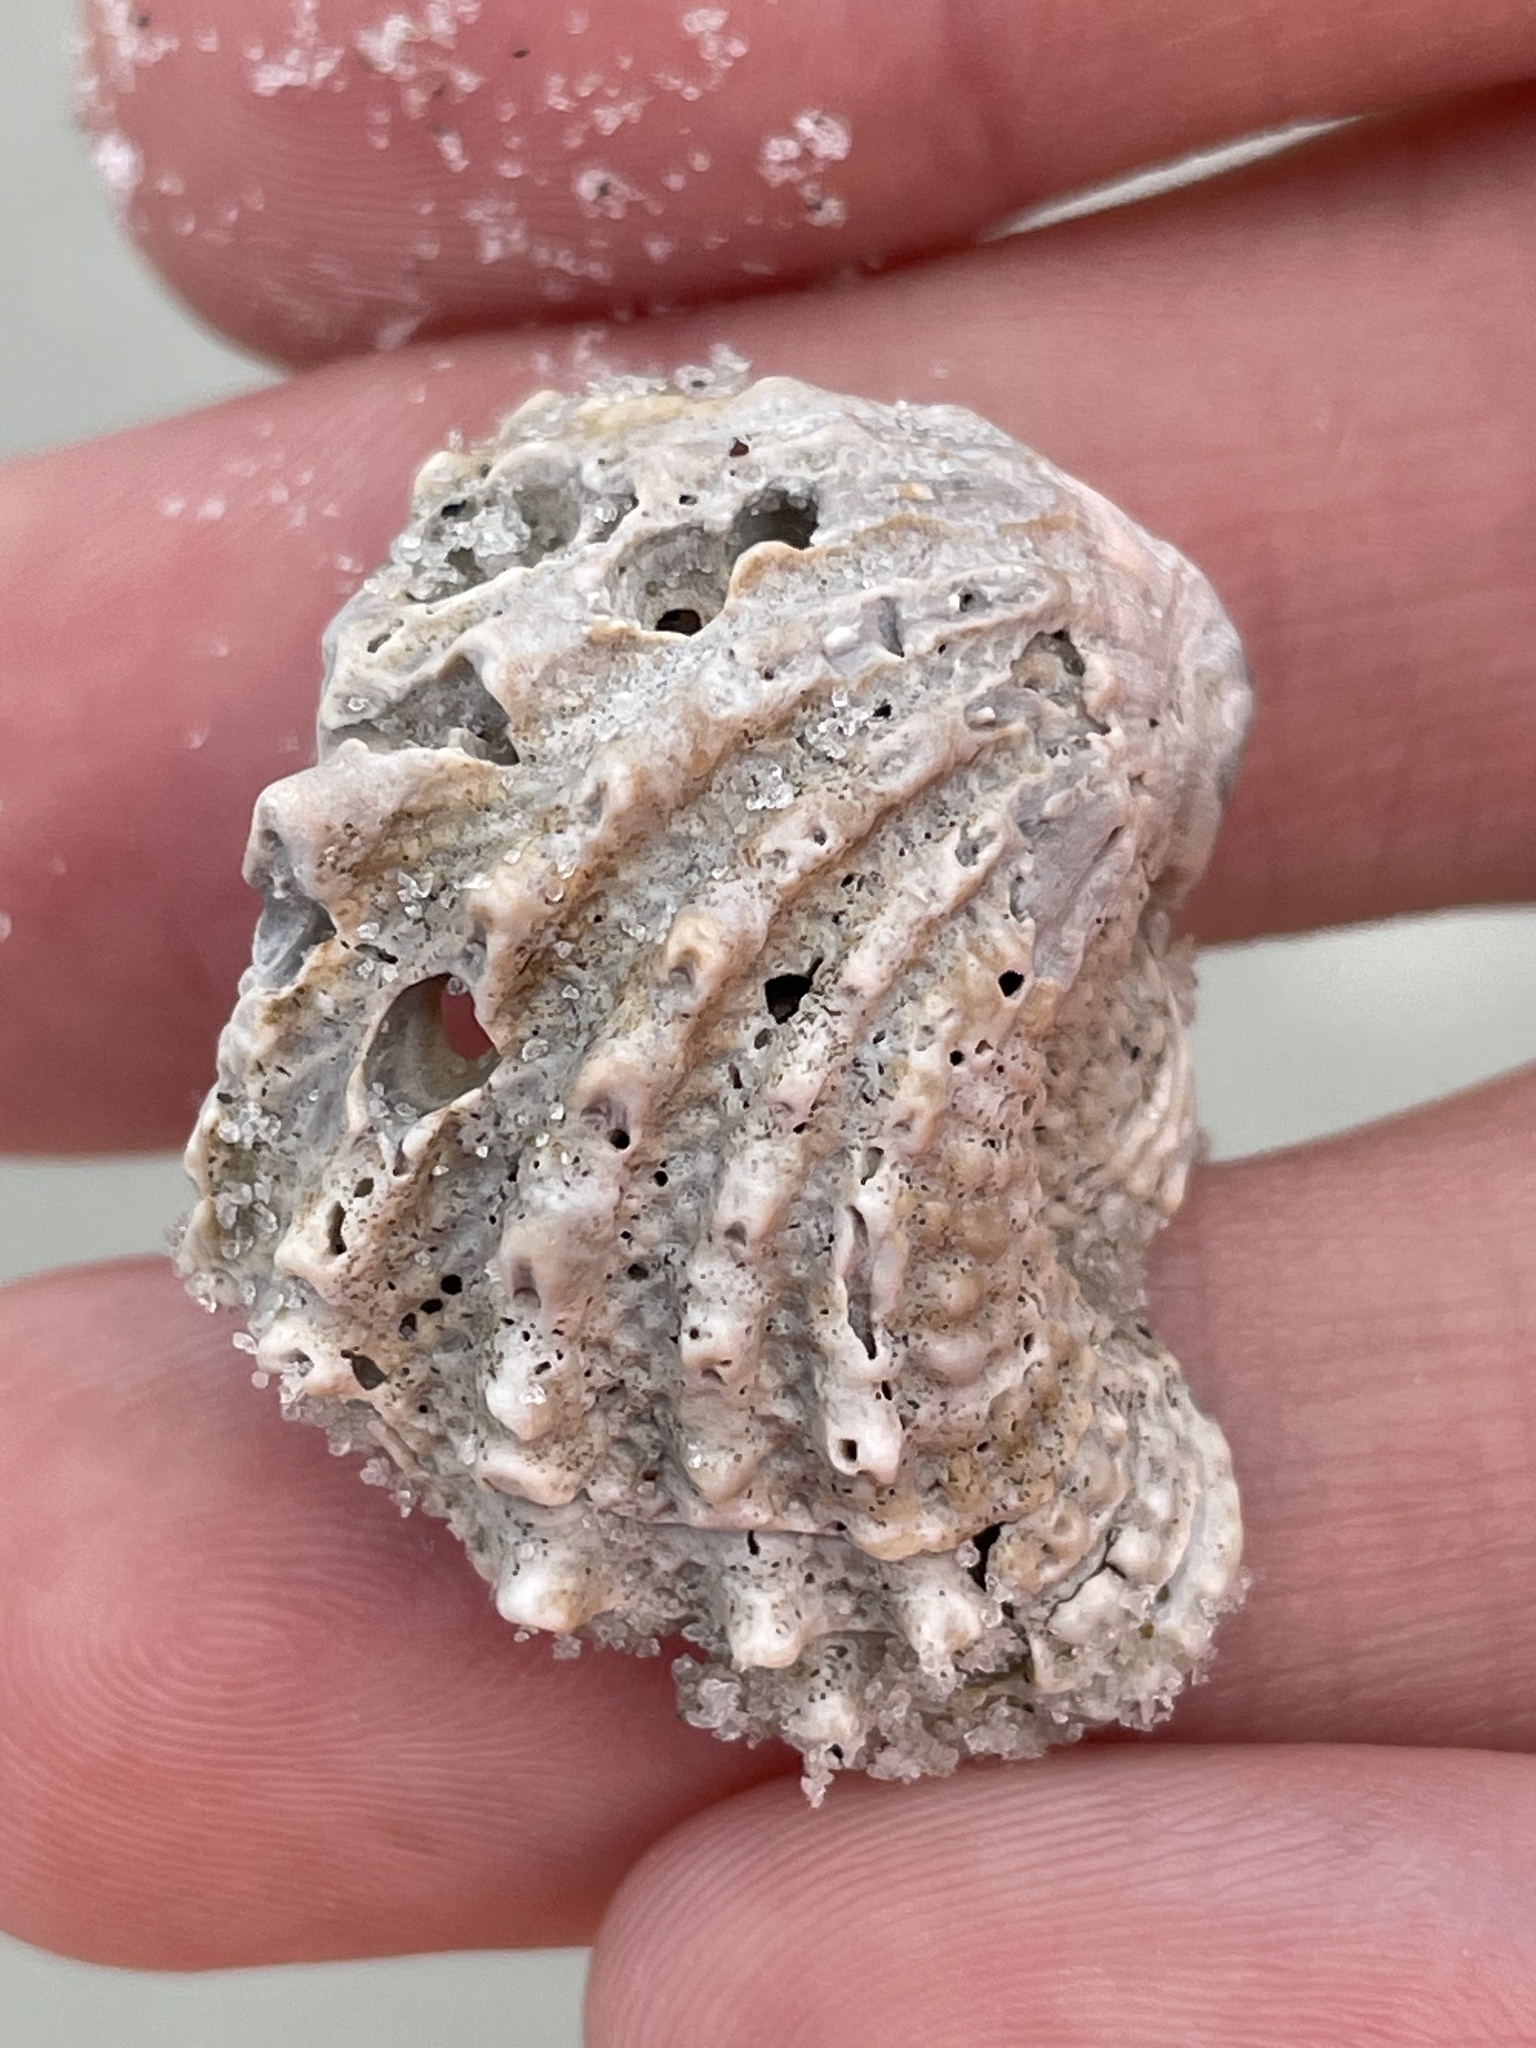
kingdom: Animalia
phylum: Mollusca
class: Bivalvia
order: Venerida
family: Chamidae
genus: Arcinella
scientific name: Arcinella cornuta
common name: Florida spiny jewel box
